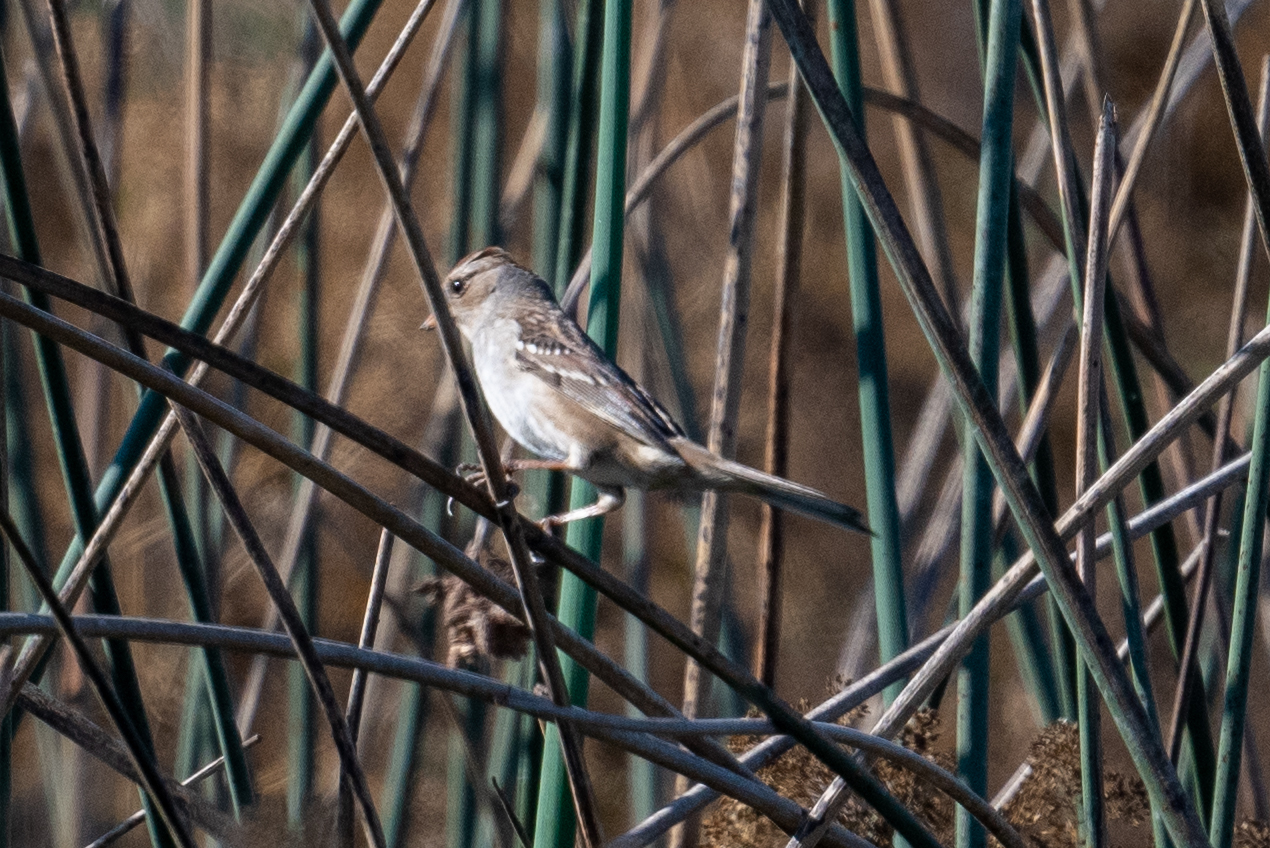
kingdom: Animalia
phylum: Chordata
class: Aves
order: Passeriformes
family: Passerellidae
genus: Zonotrichia
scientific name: Zonotrichia leucophrys
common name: White-crowned sparrow
